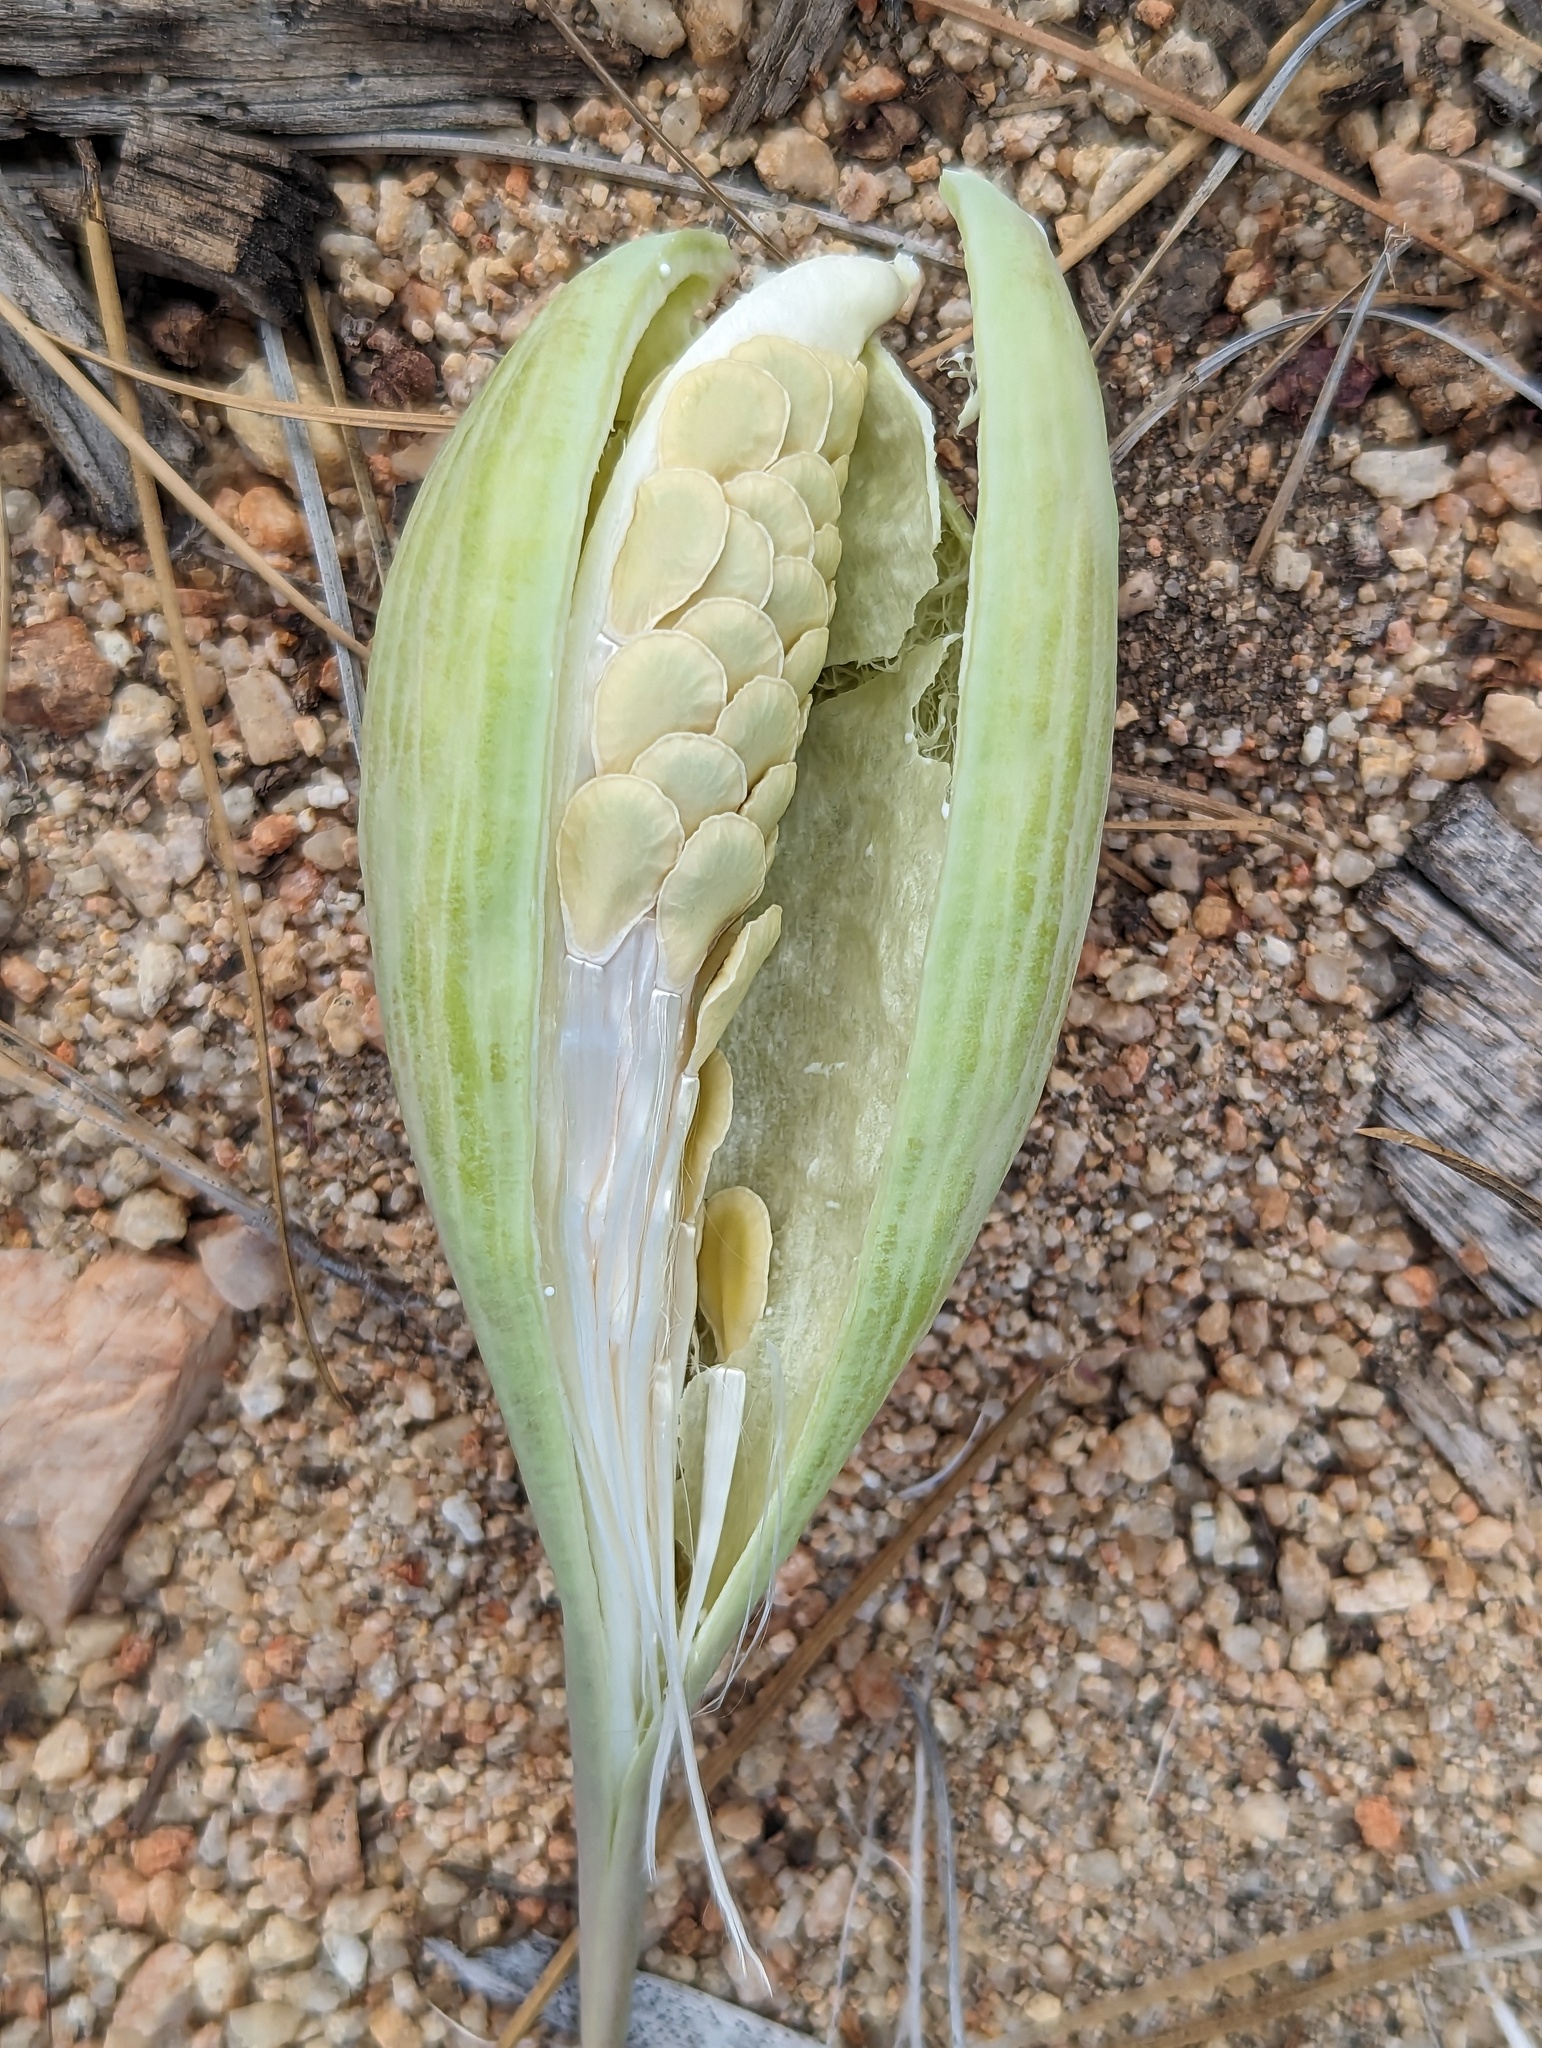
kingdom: Plantae
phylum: Tracheophyta
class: Magnoliopsida
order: Gentianales
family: Apocynaceae
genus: Asclepias
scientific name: Asclepias cordifolia
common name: Purple milkweed
